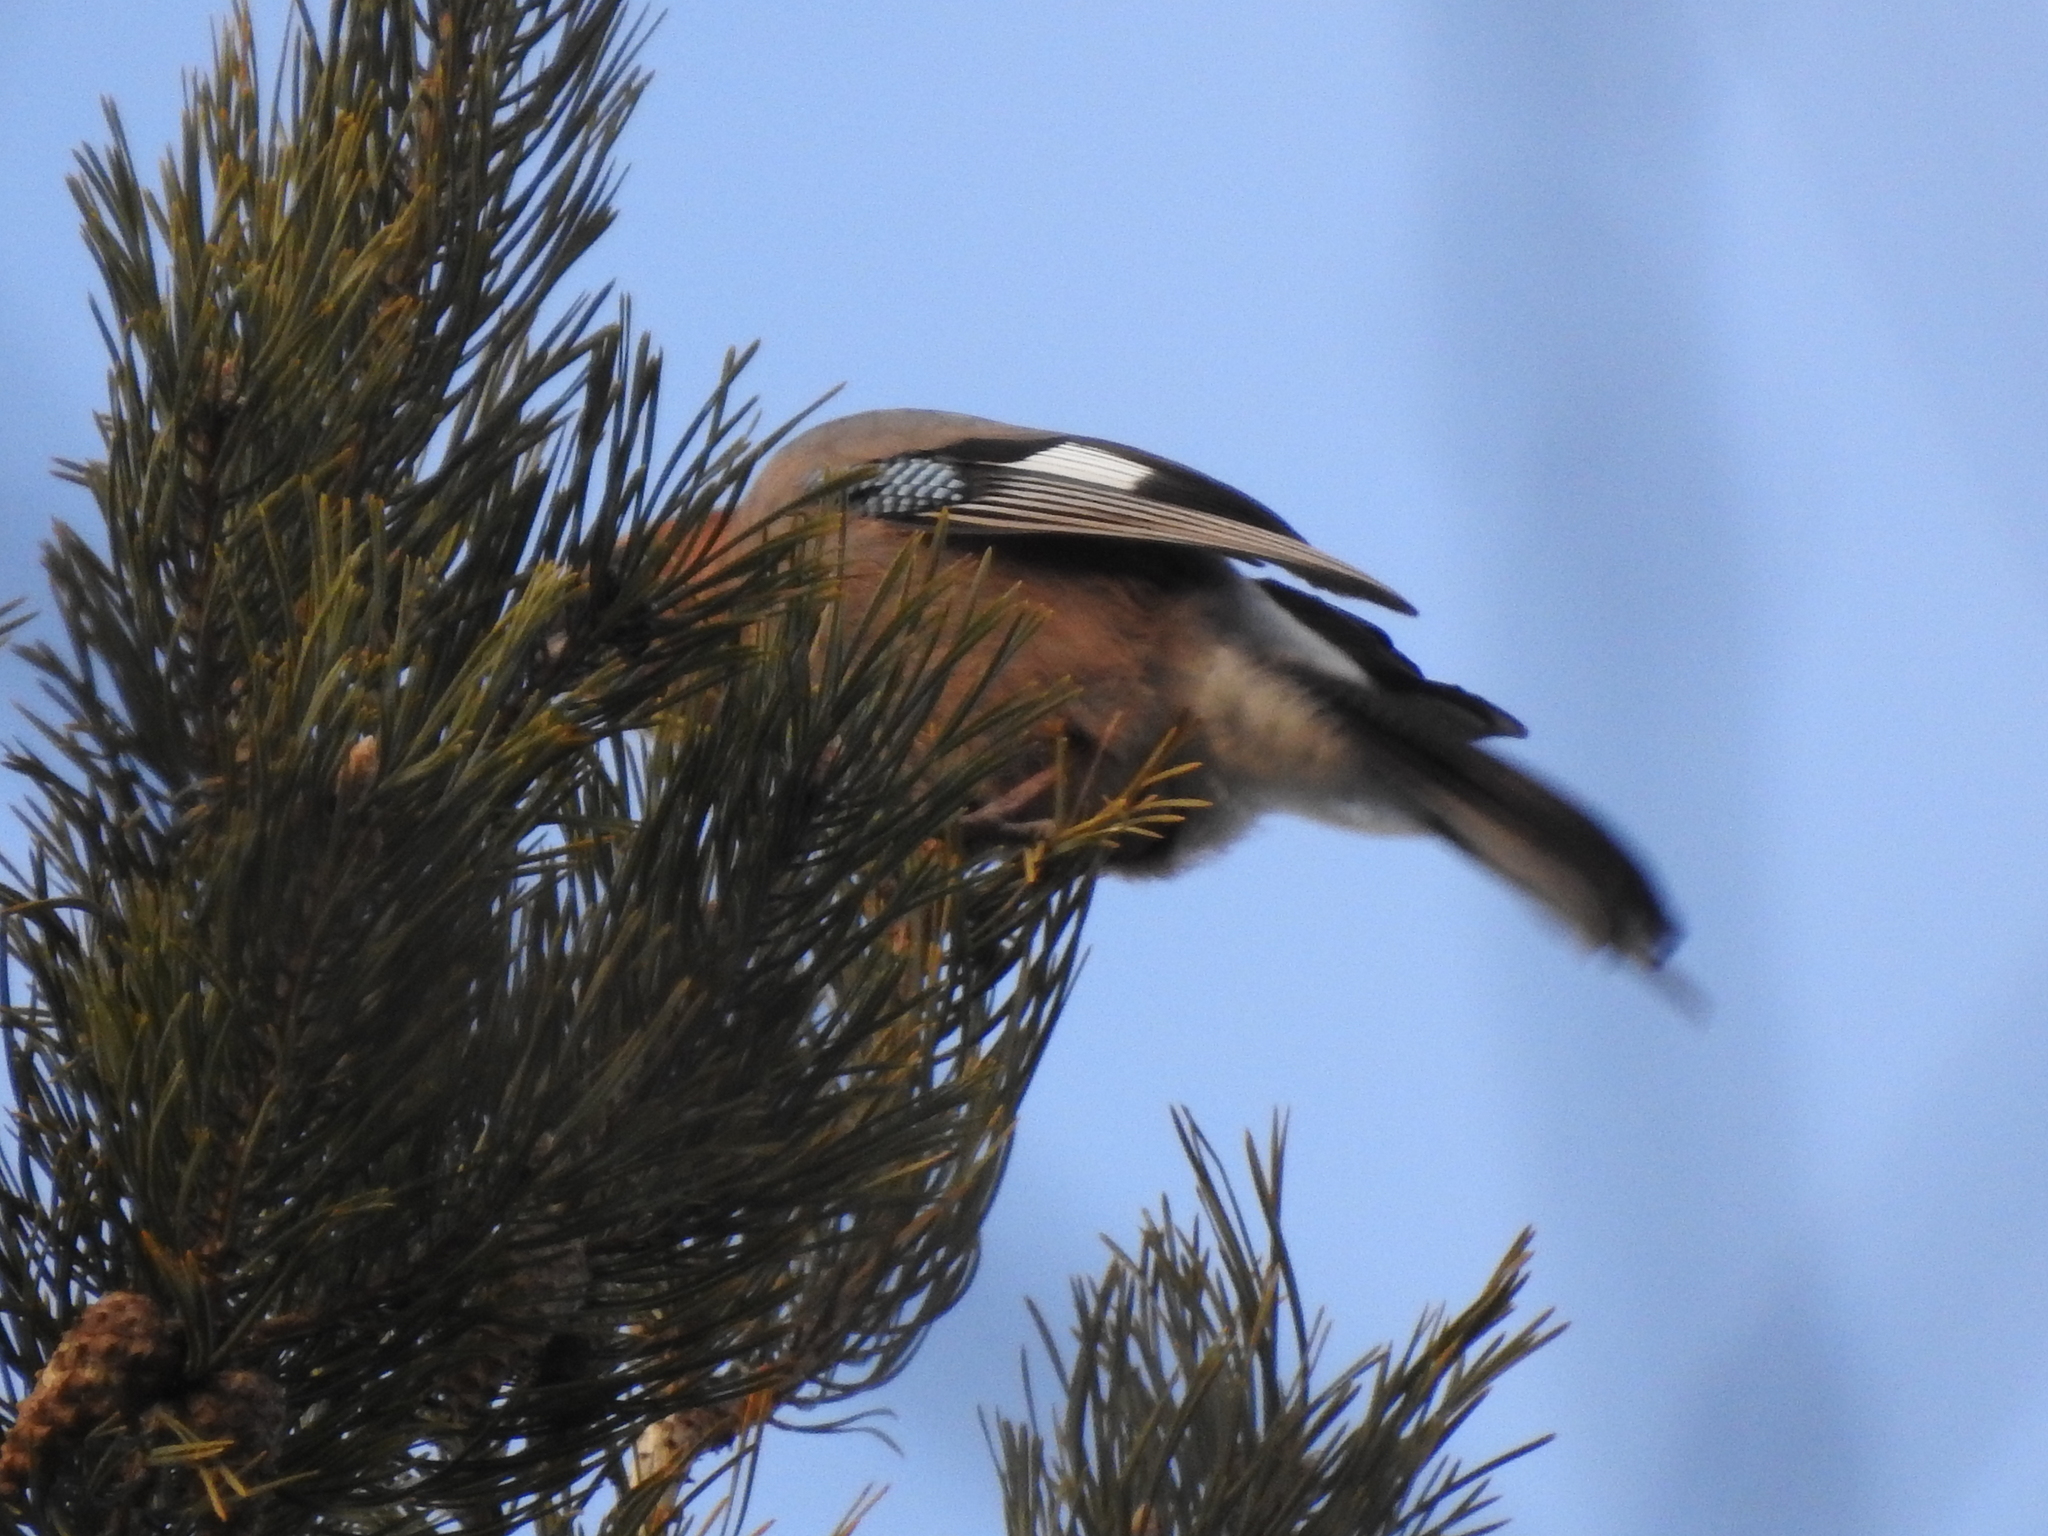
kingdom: Animalia
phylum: Chordata
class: Aves
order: Passeriformes
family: Corvidae
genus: Garrulus
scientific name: Garrulus glandarius
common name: Eurasian jay
